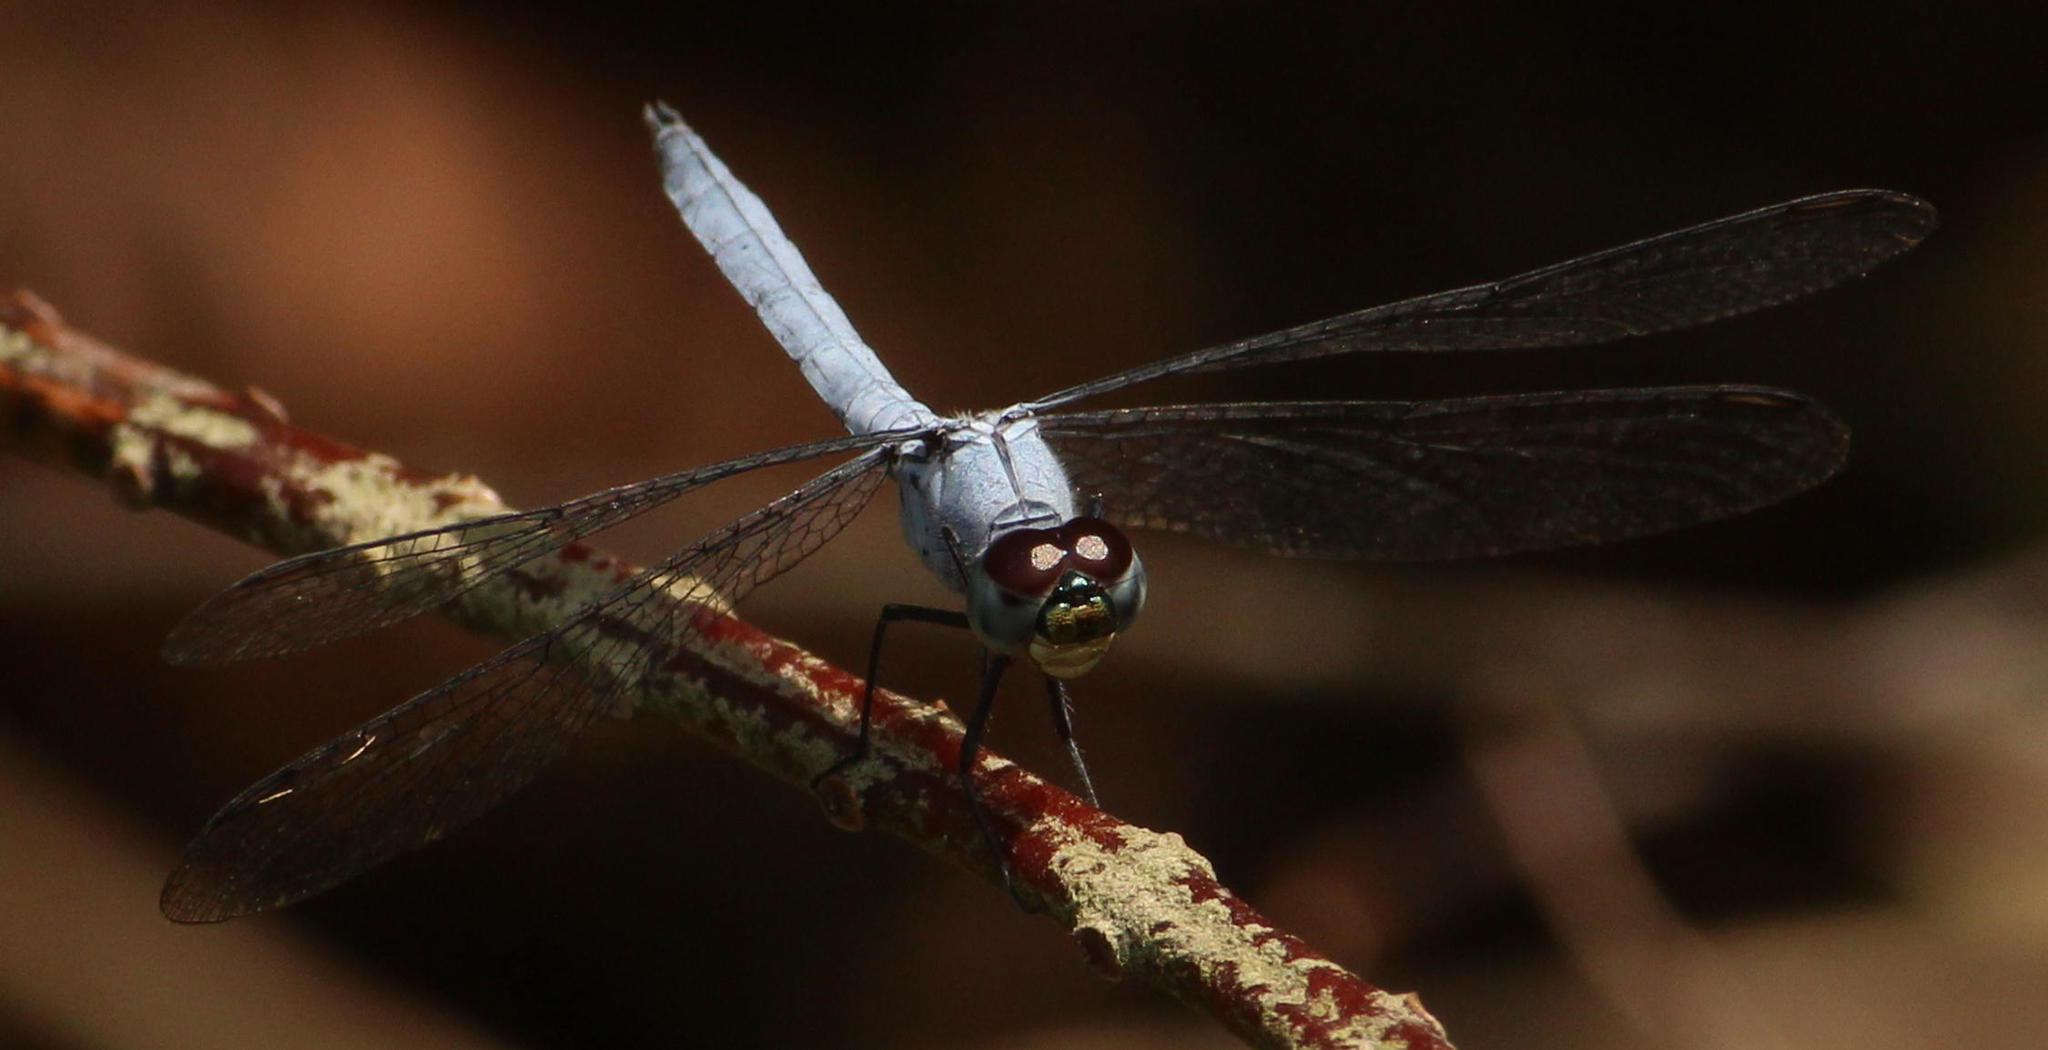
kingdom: Animalia
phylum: Arthropoda
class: Insecta
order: Odonata
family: Libellulidae
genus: Chalcostephia
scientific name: Chalcostephia flavifrons
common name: Inspector
